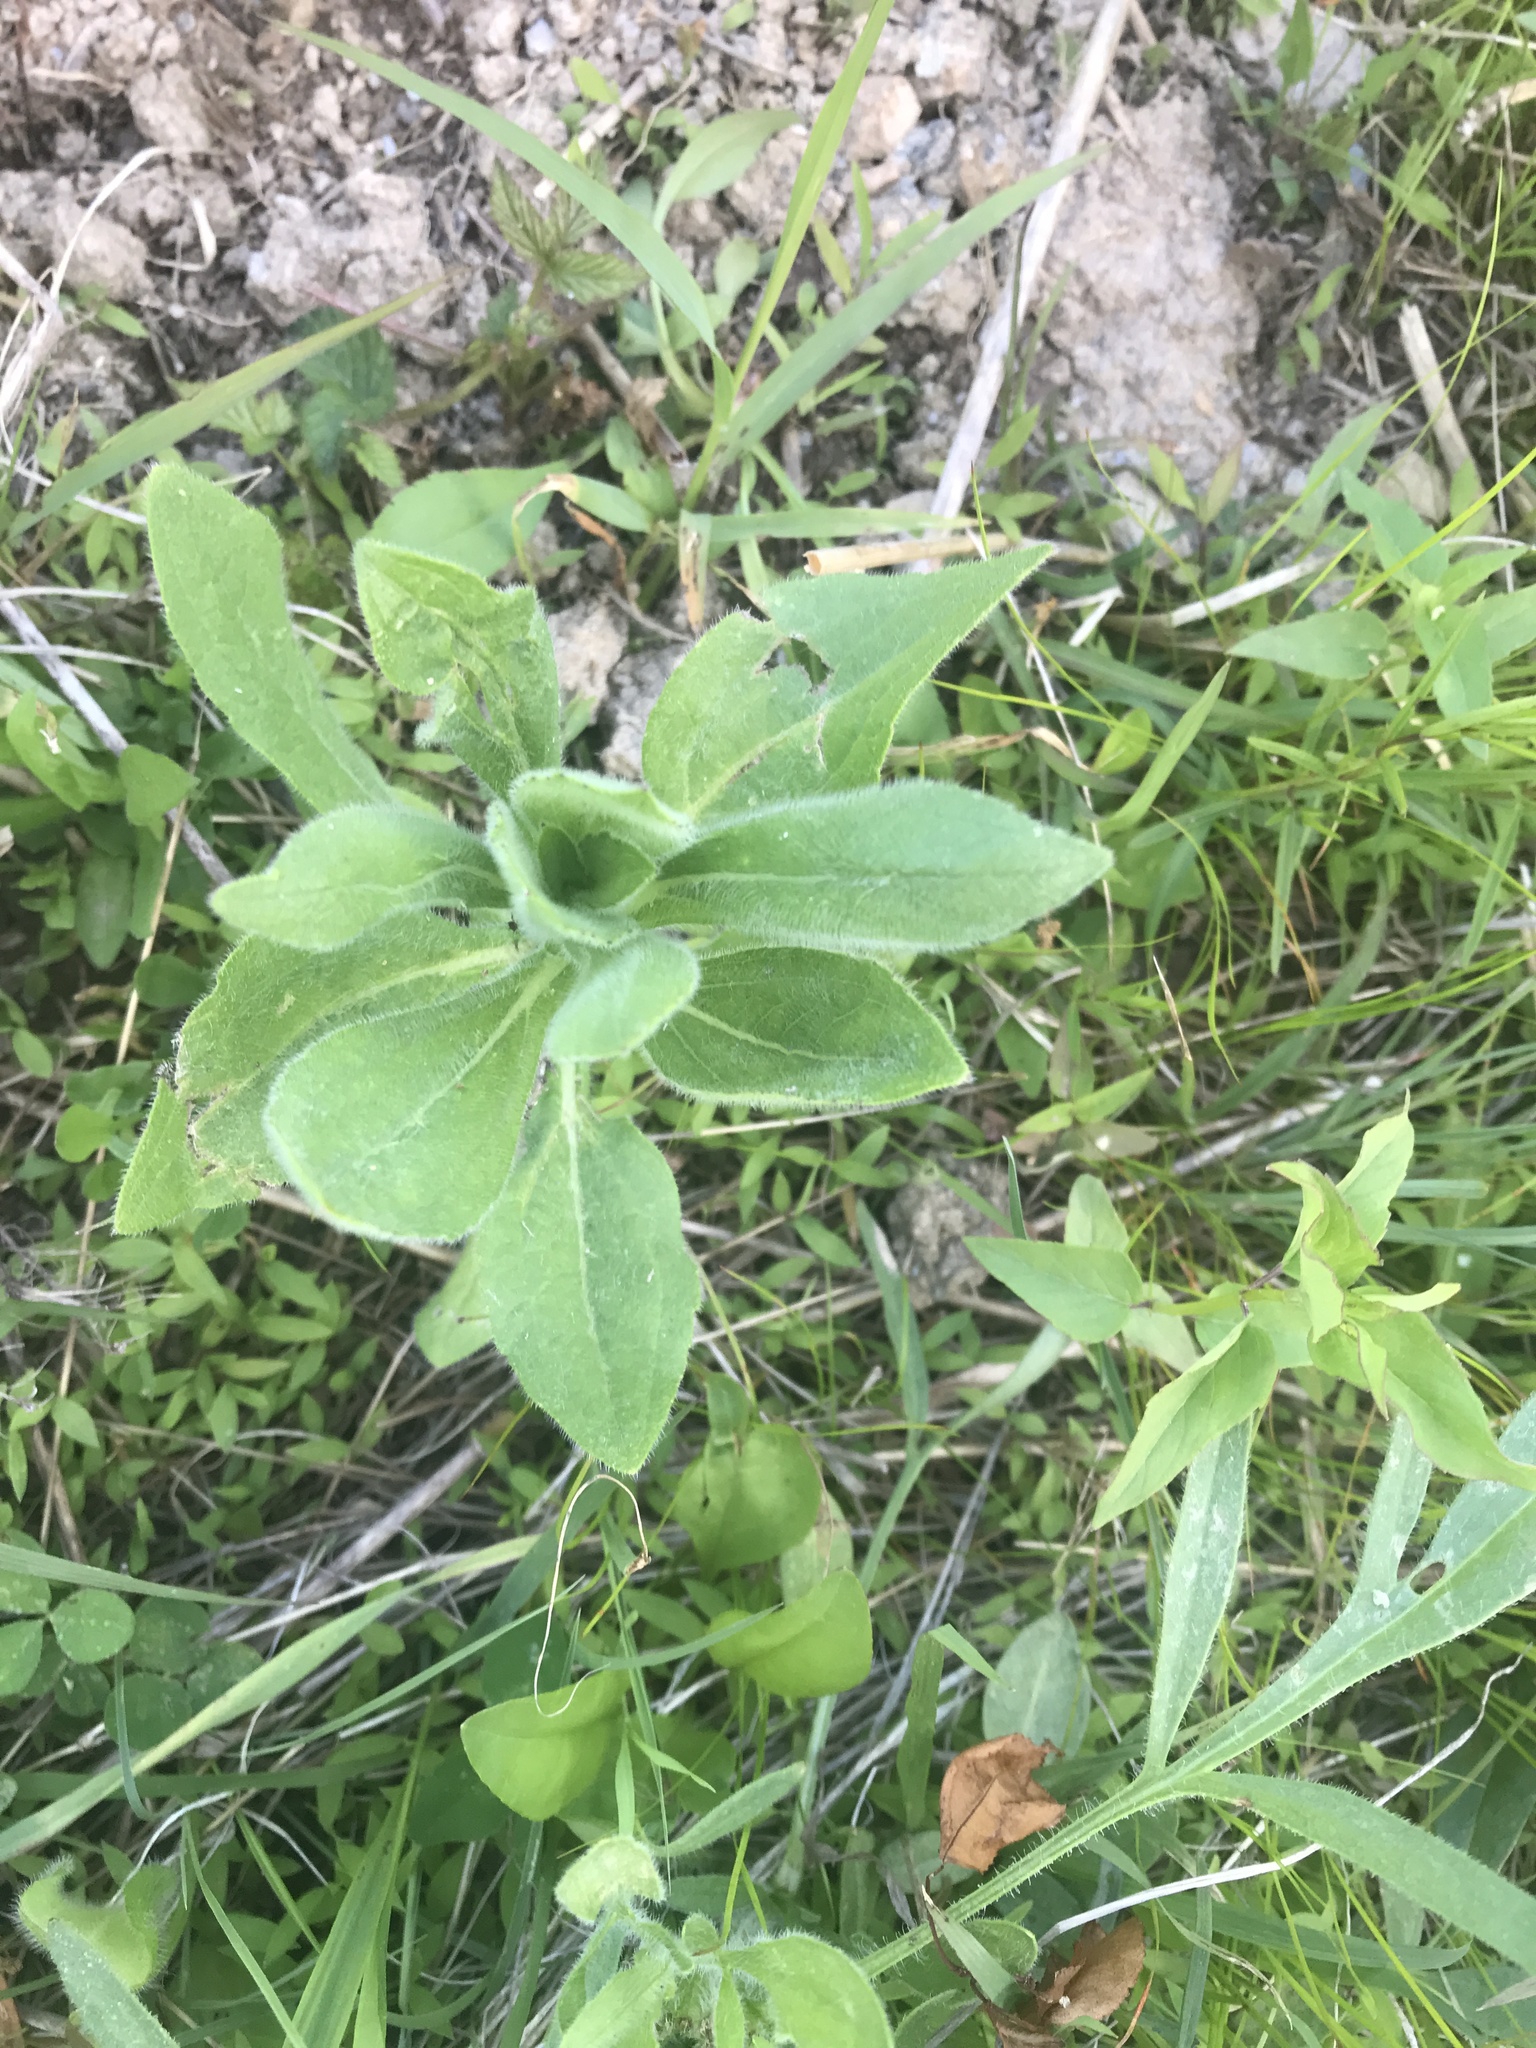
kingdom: Plantae
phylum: Tracheophyta
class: Magnoliopsida
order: Asterales
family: Asteraceae
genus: Rudbeckia
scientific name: Rudbeckia hirta
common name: Black-eyed-susan
